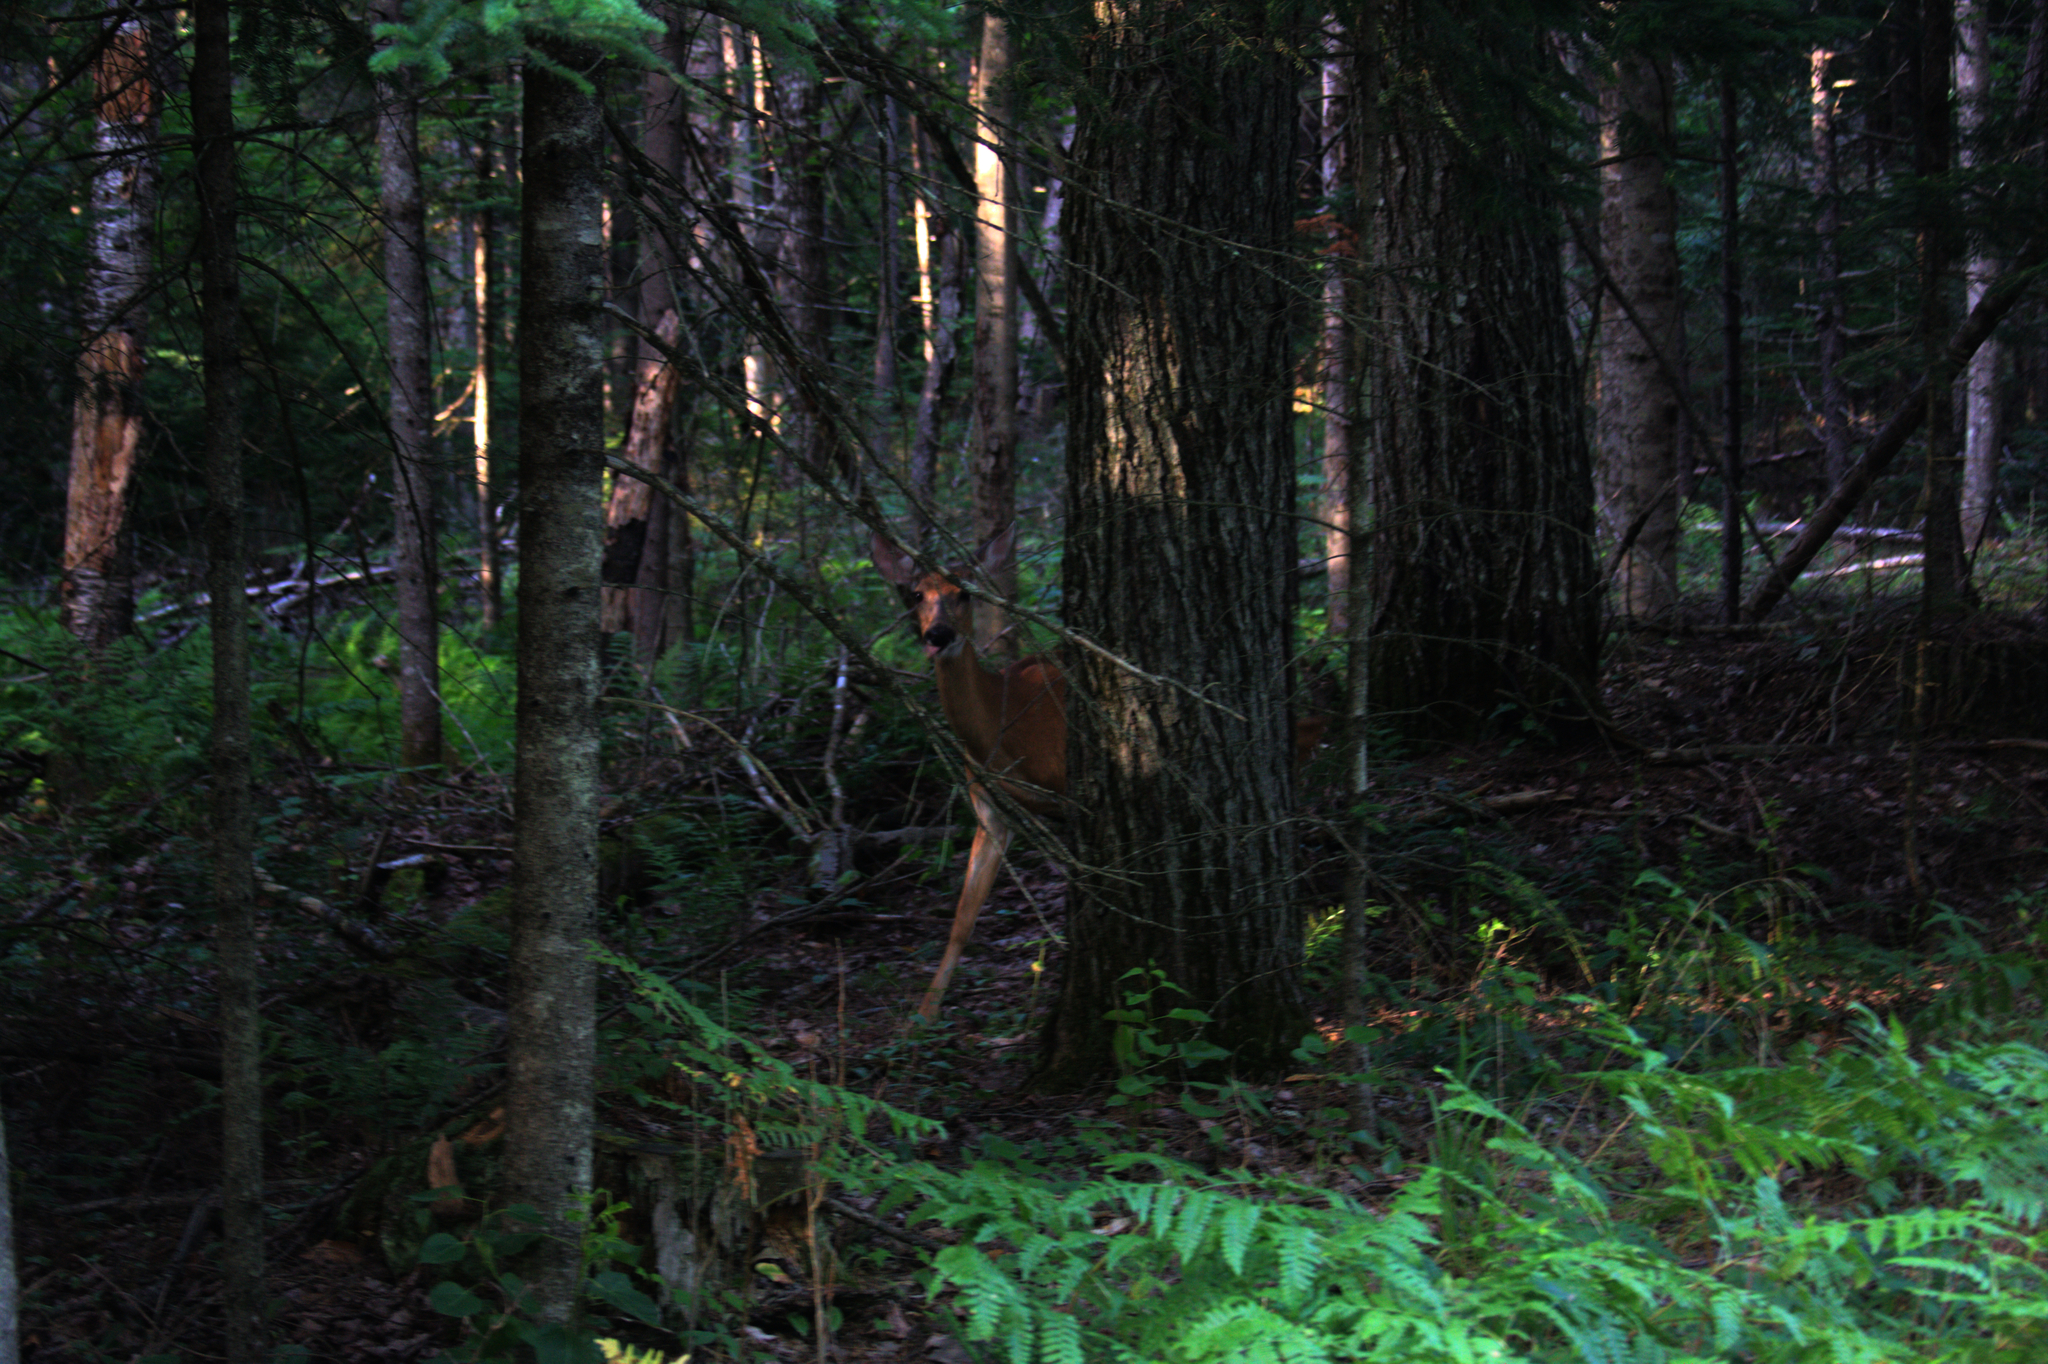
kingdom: Animalia
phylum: Chordata
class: Mammalia
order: Artiodactyla
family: Cervidae
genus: Odocoileus
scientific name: Odocoileus virginianus
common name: White-tailed deer
